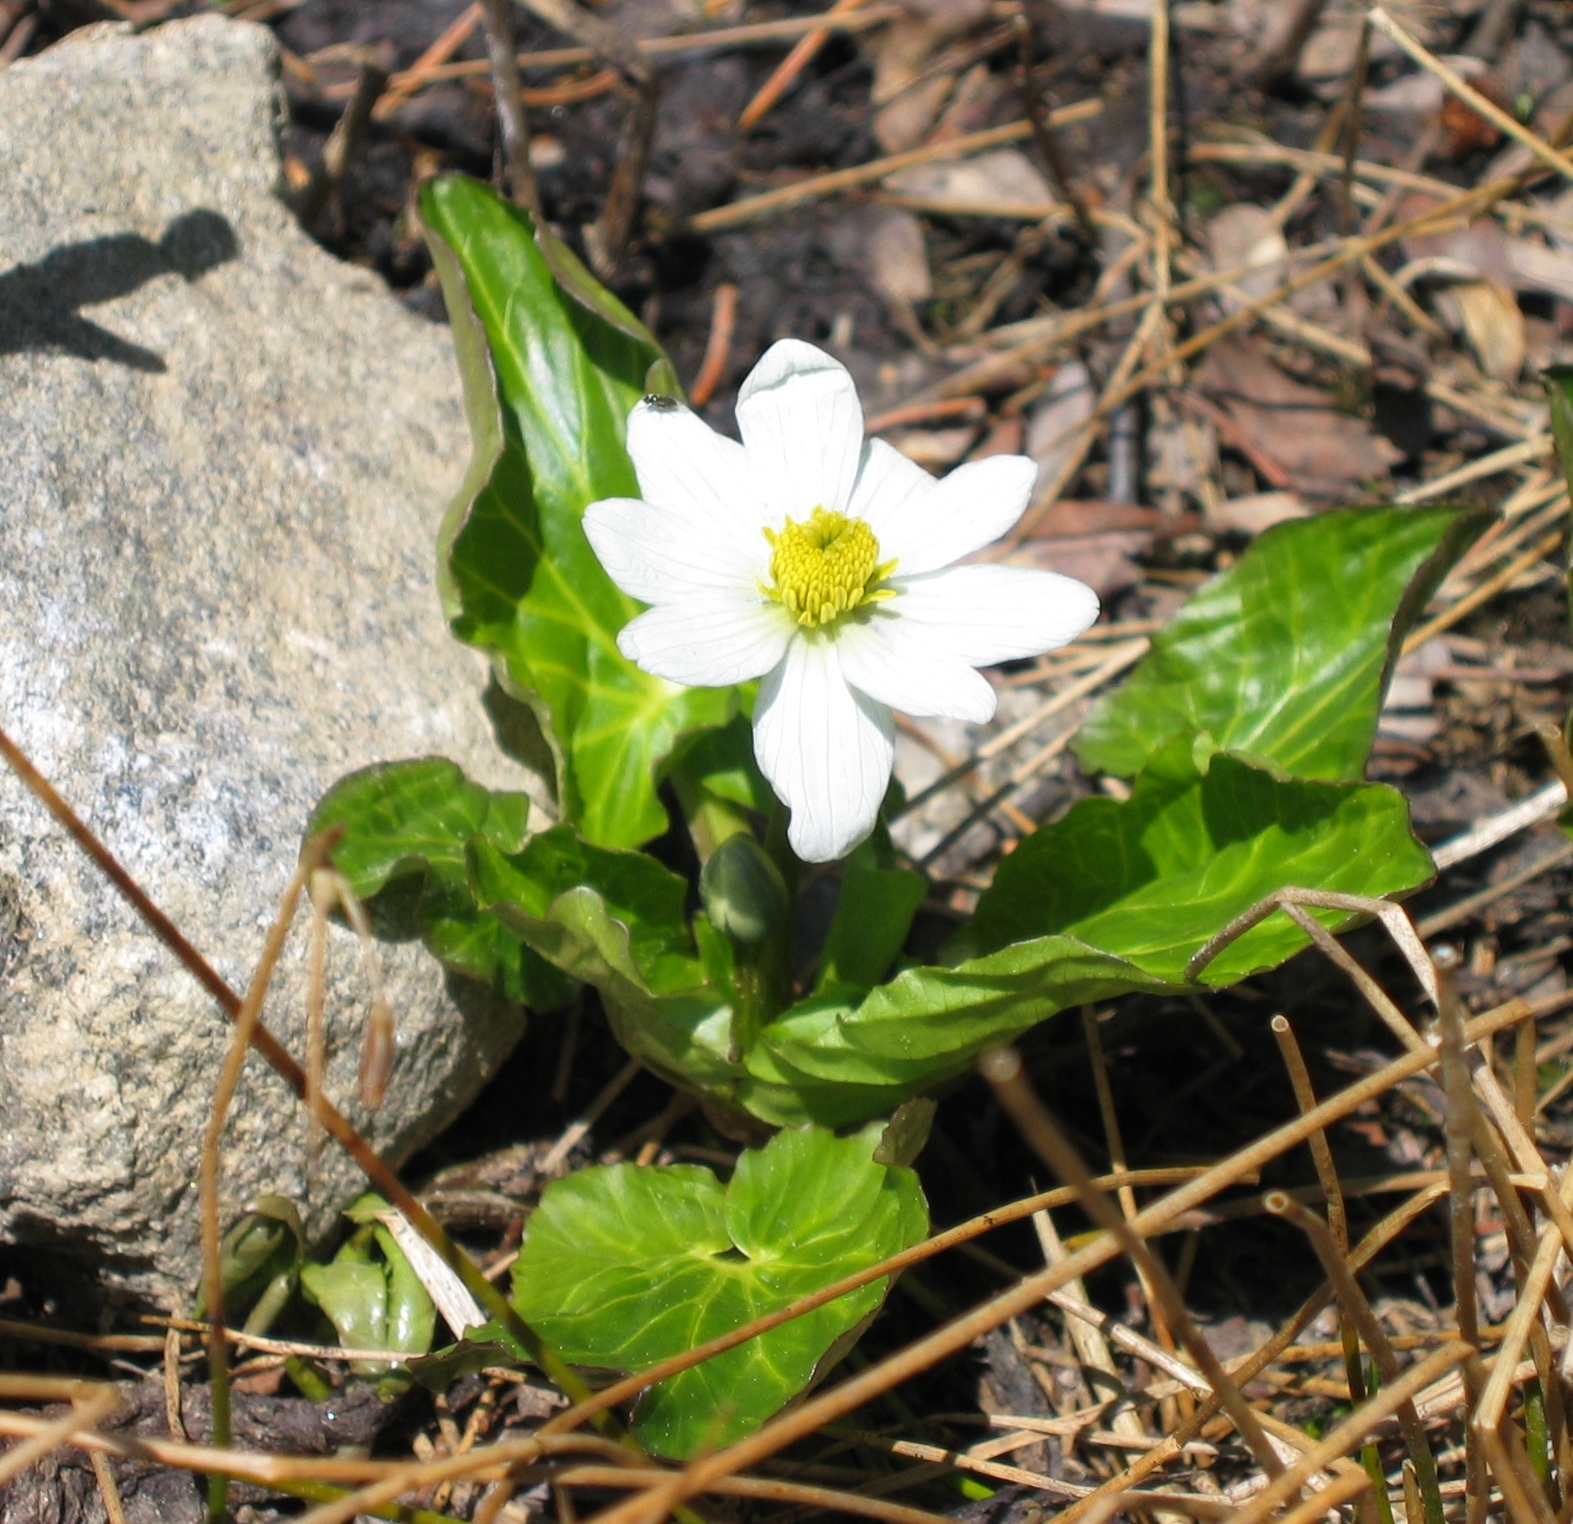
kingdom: Plantae
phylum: Tracheophyta
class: Magnoliopsida
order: Ranunculales
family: Ranunculaceae
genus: Caltha
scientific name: Caltha leptosepala
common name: Elkslip
